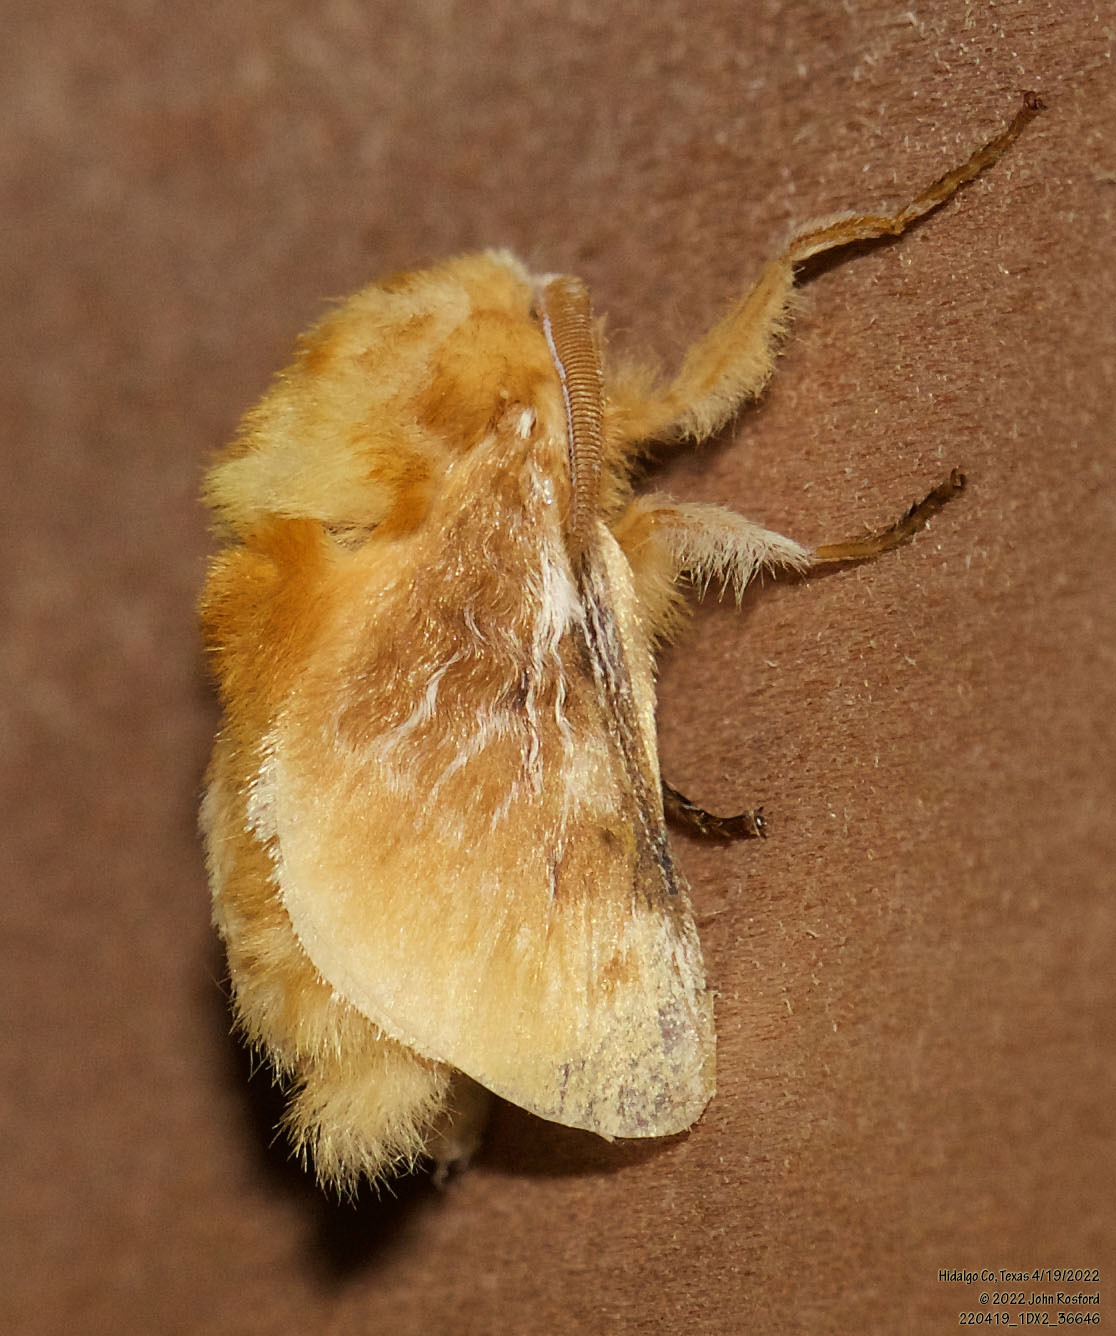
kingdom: Animalia
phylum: Arthropoda
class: Insecta
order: Lepidoptera
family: Megalopygidae
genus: Megalopyge
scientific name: Megalopyge opercularis
